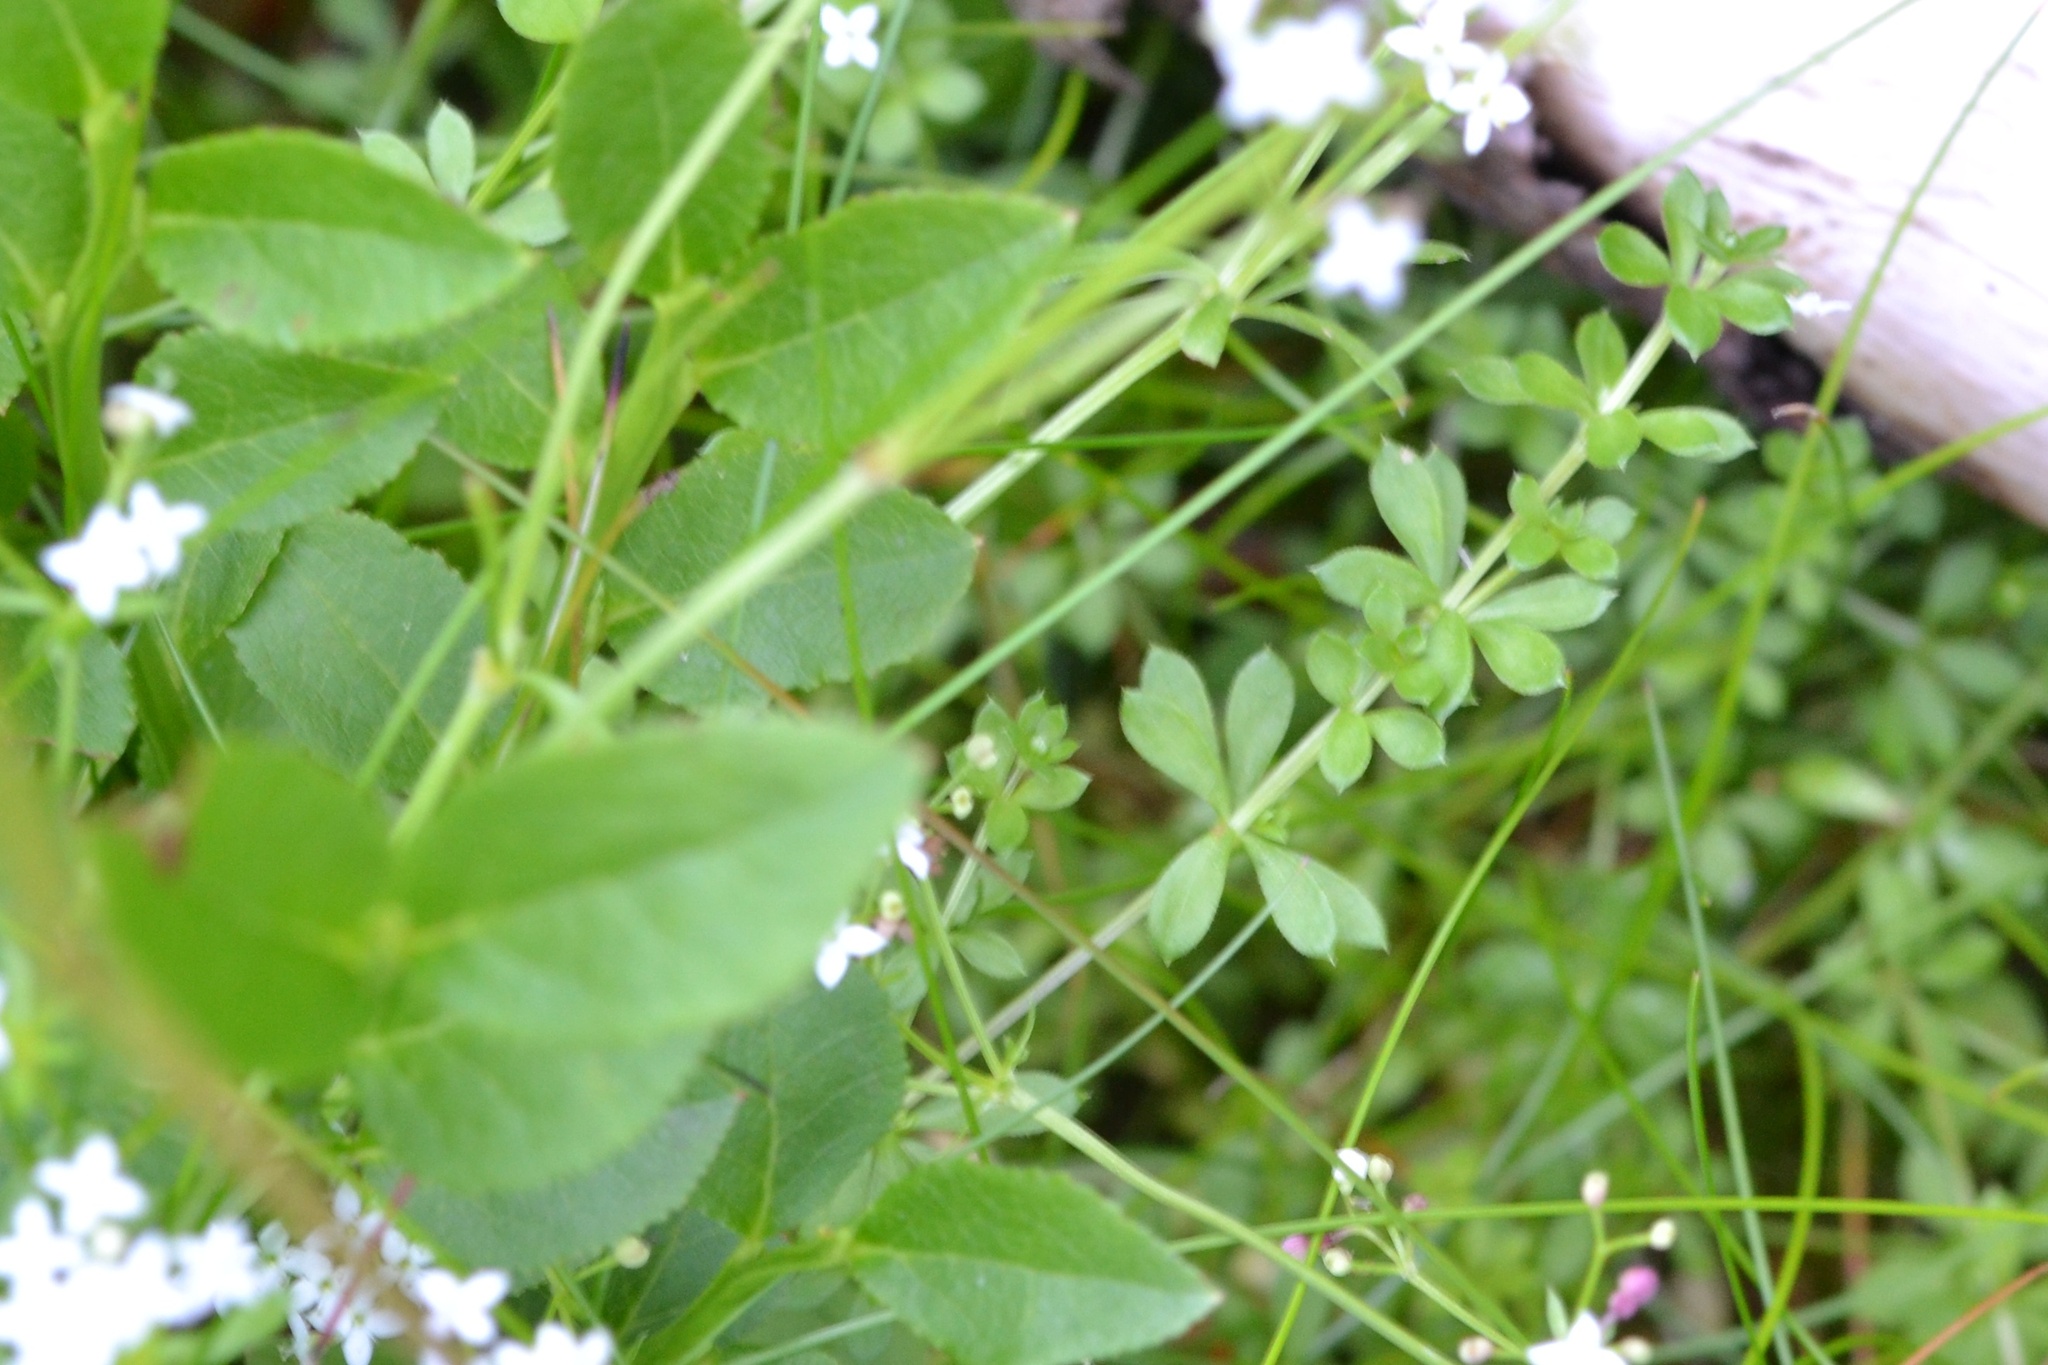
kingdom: Plantae
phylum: Tracheophyta
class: Magnoliopsida
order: Gentianales
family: Rubiaceae
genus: Galium
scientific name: Galium saxatile
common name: Heath bedstraw
